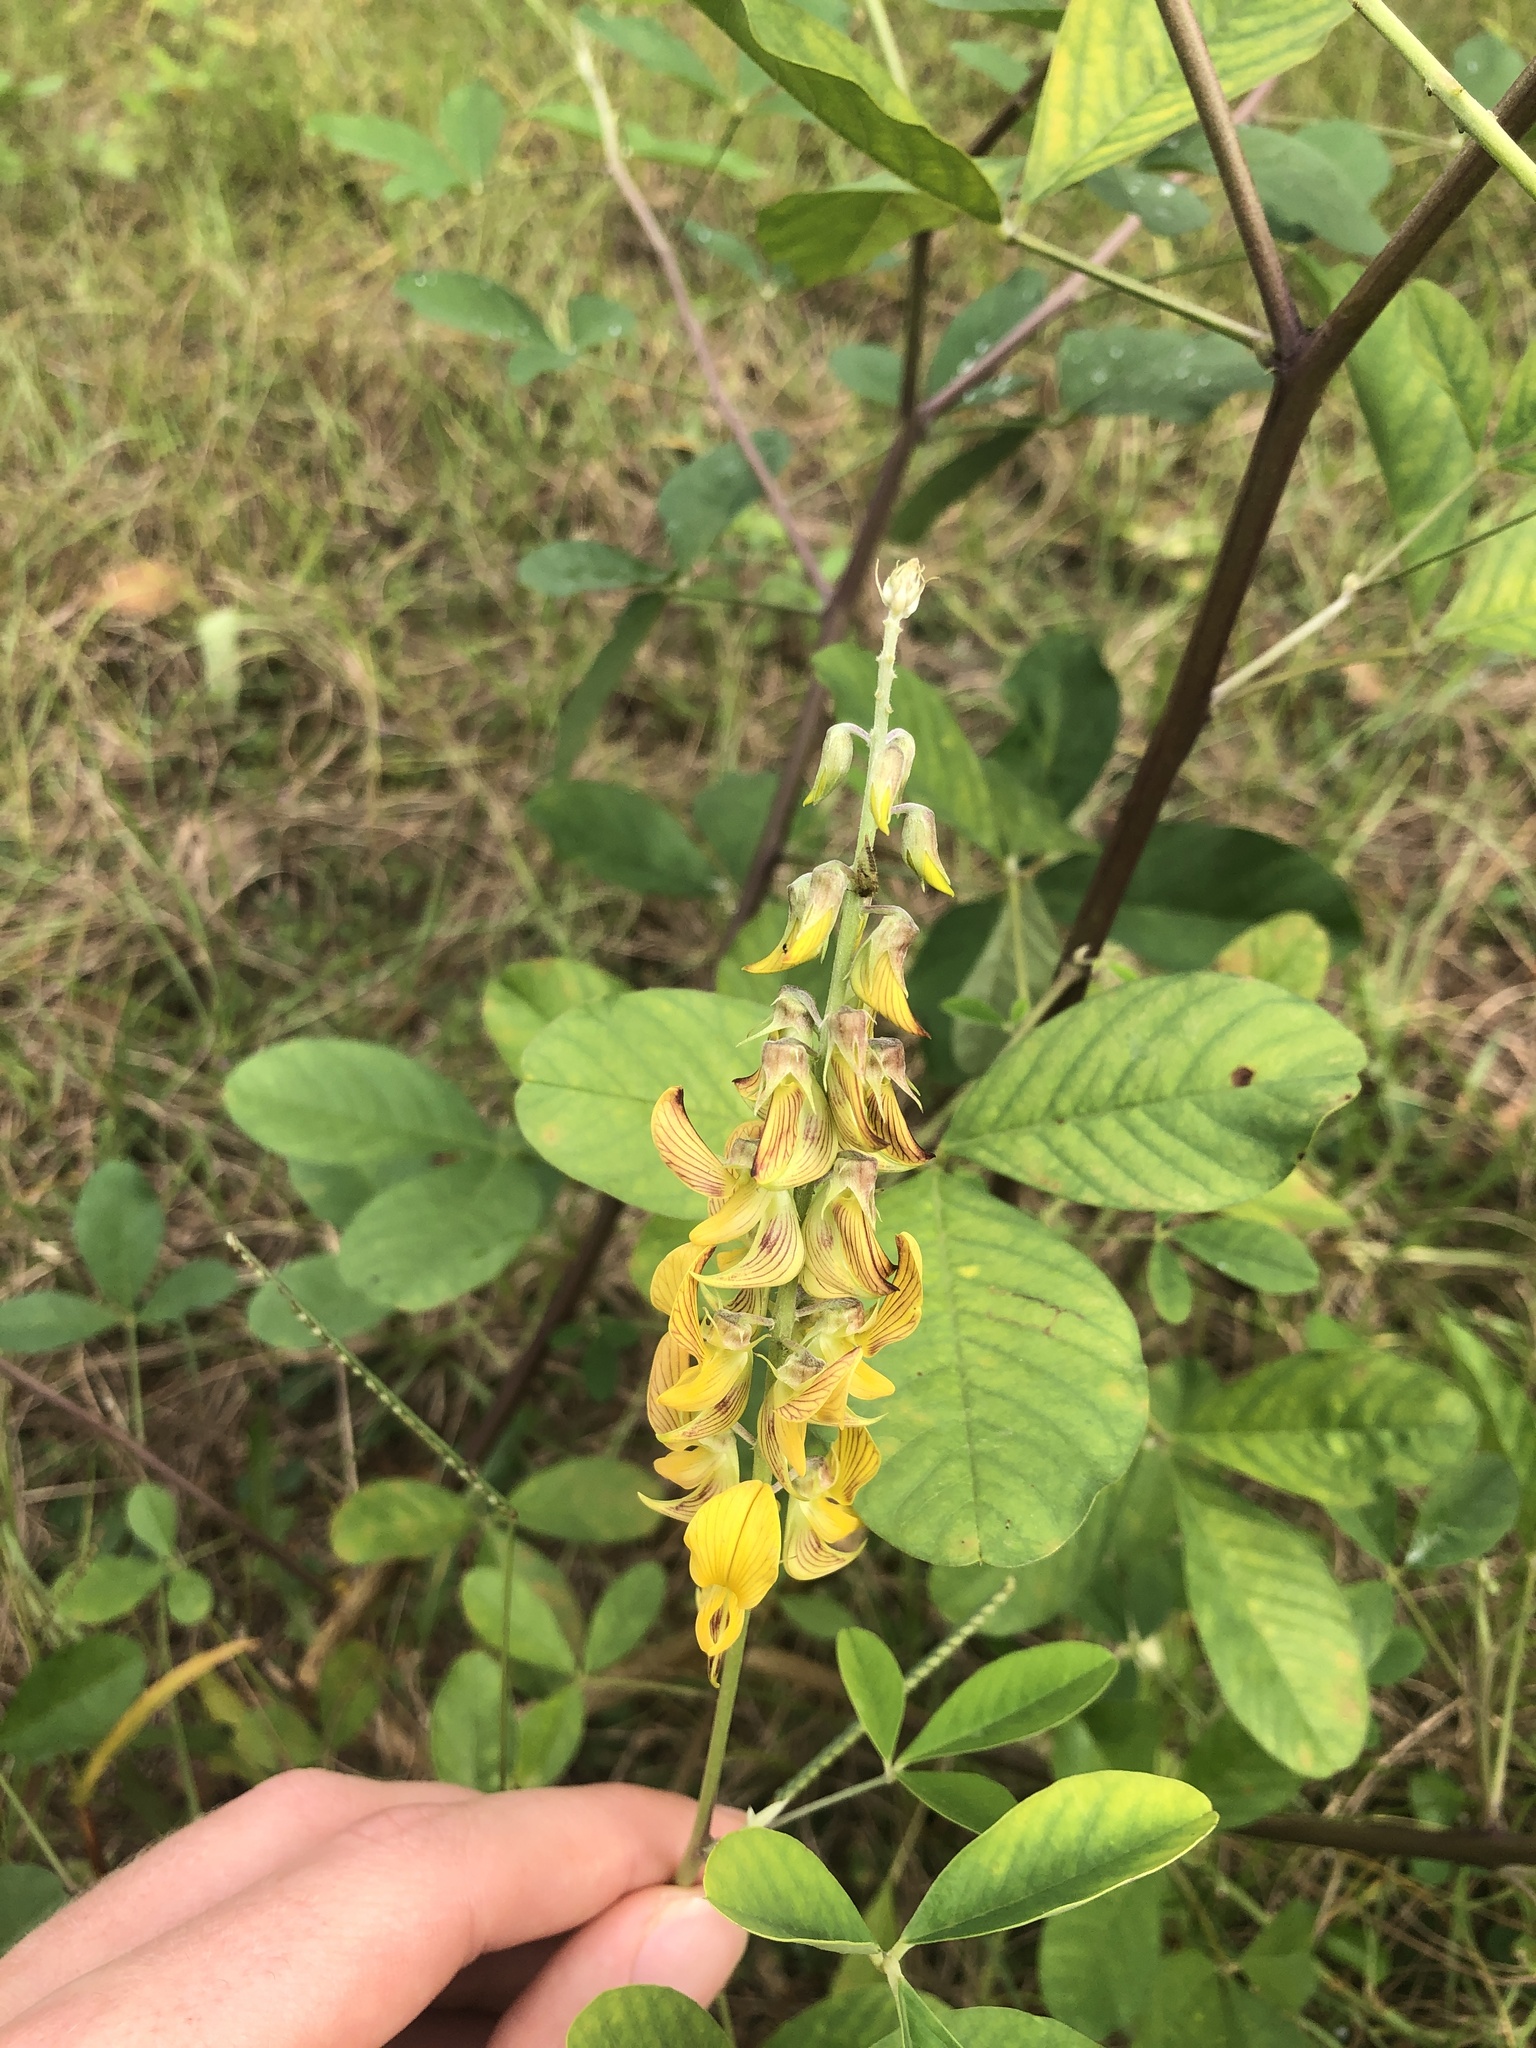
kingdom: Plantae
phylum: Tracheophyta
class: Magnoliopsida
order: Fabales
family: Fabaceae
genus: Crotalaria
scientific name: Crotalaria pallida
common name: Smooth rattlebox
